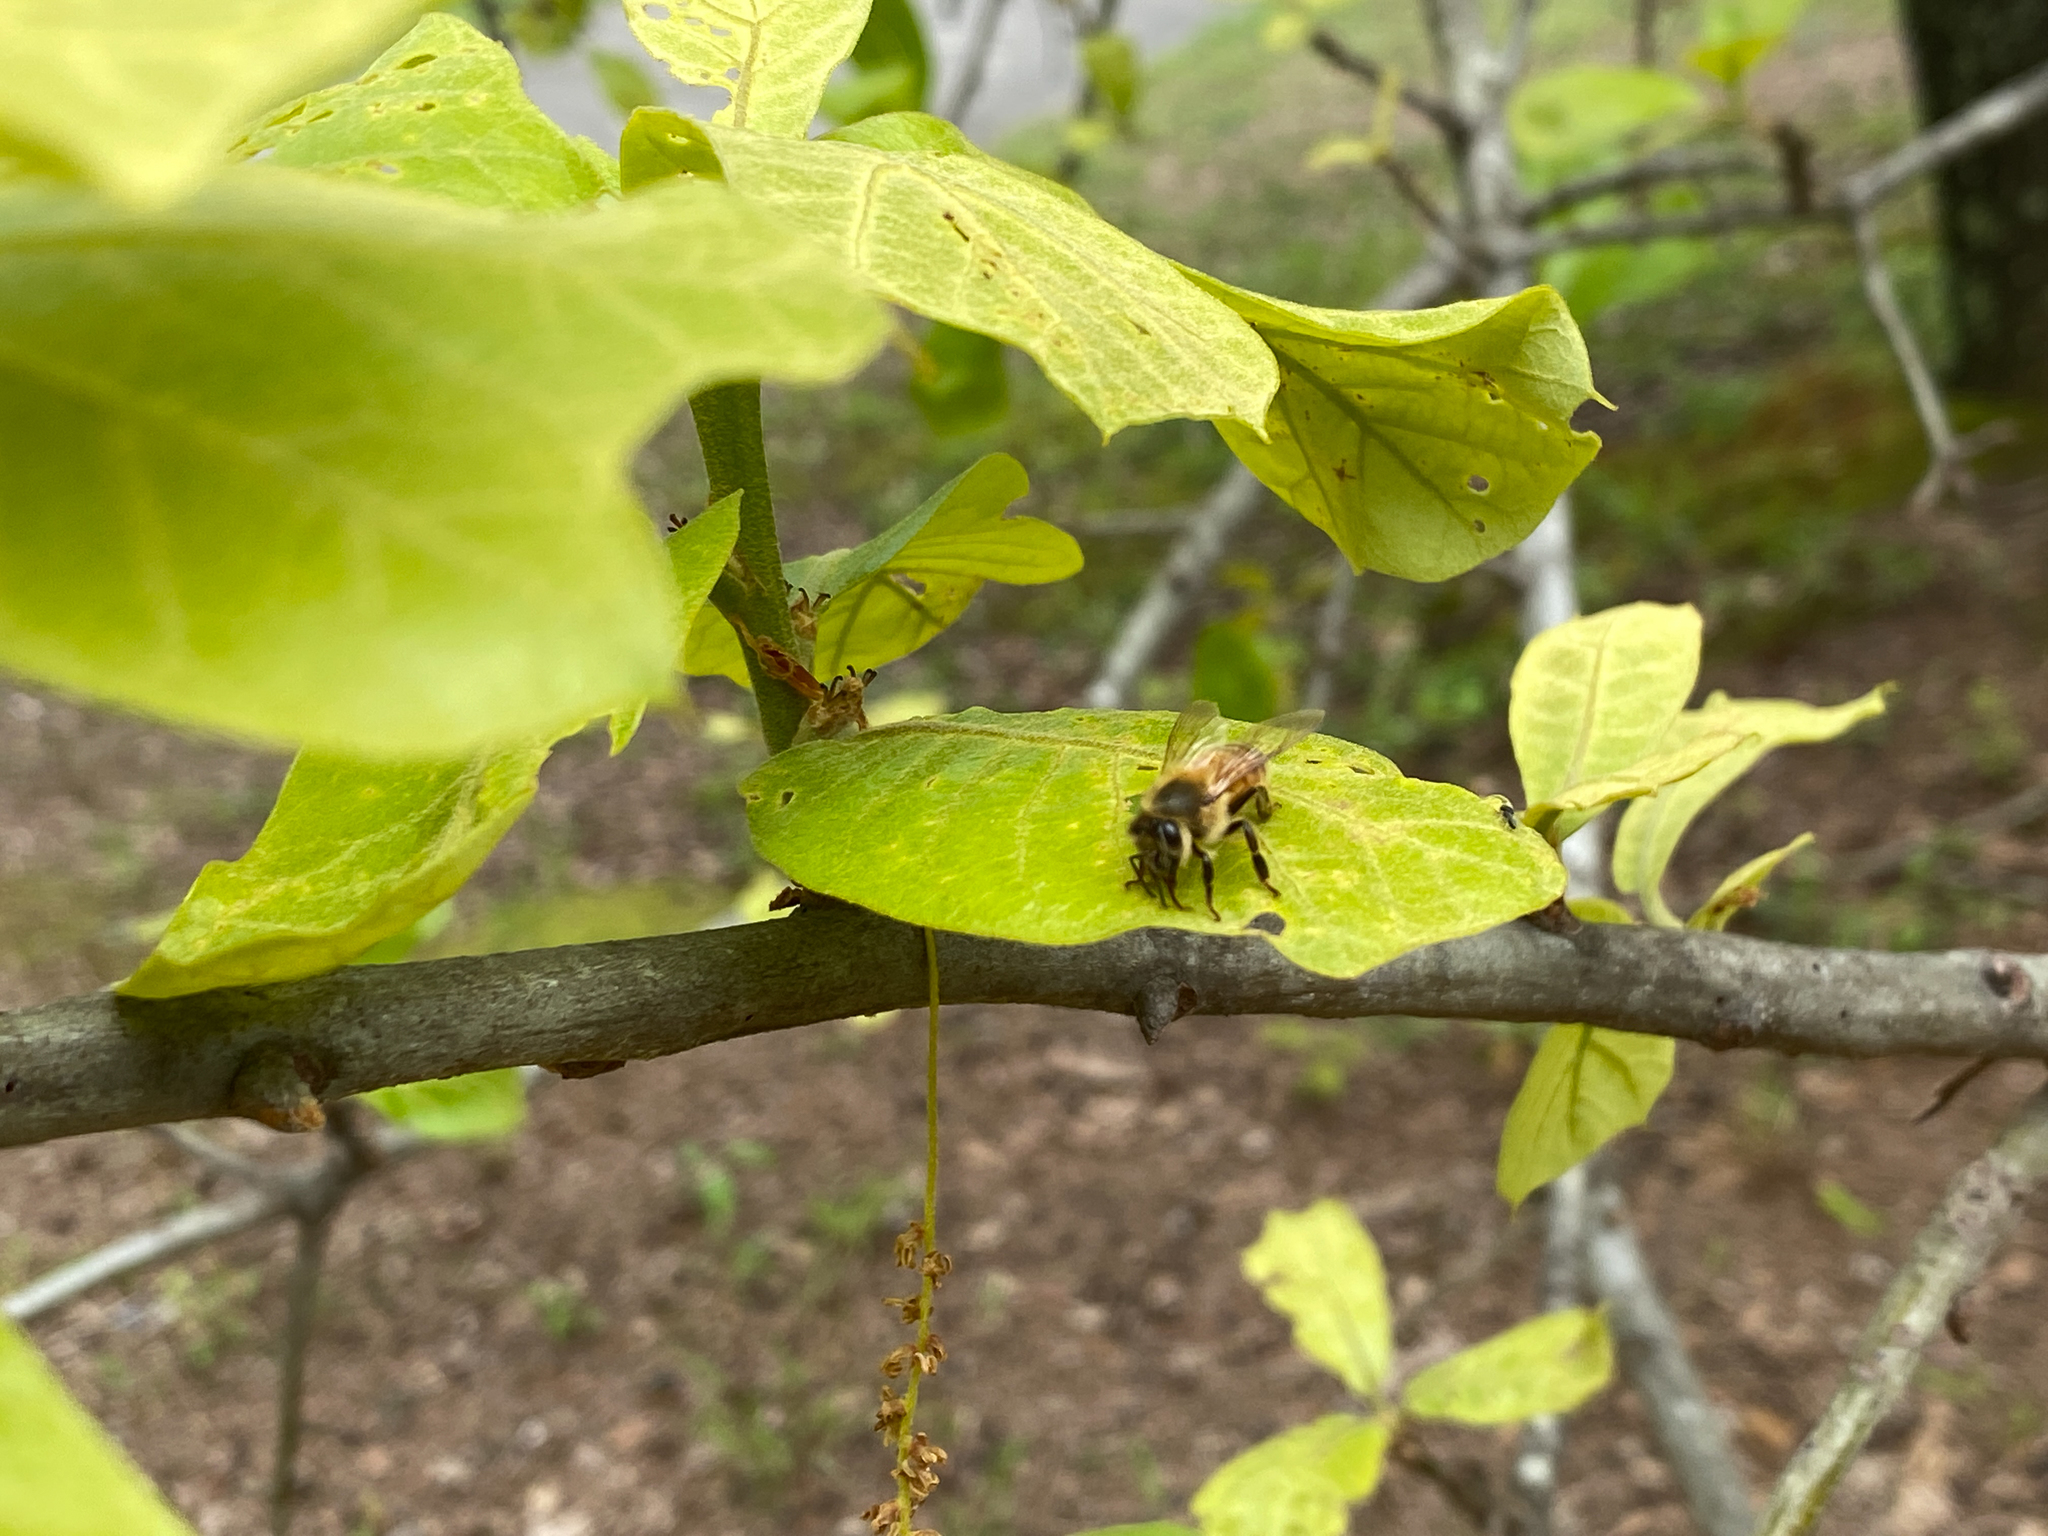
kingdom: Animalia
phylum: Arthropoda
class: Insecta
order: Hymenoptera
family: Apidae
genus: Apis
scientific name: Apis mellifera
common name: Honey bee
